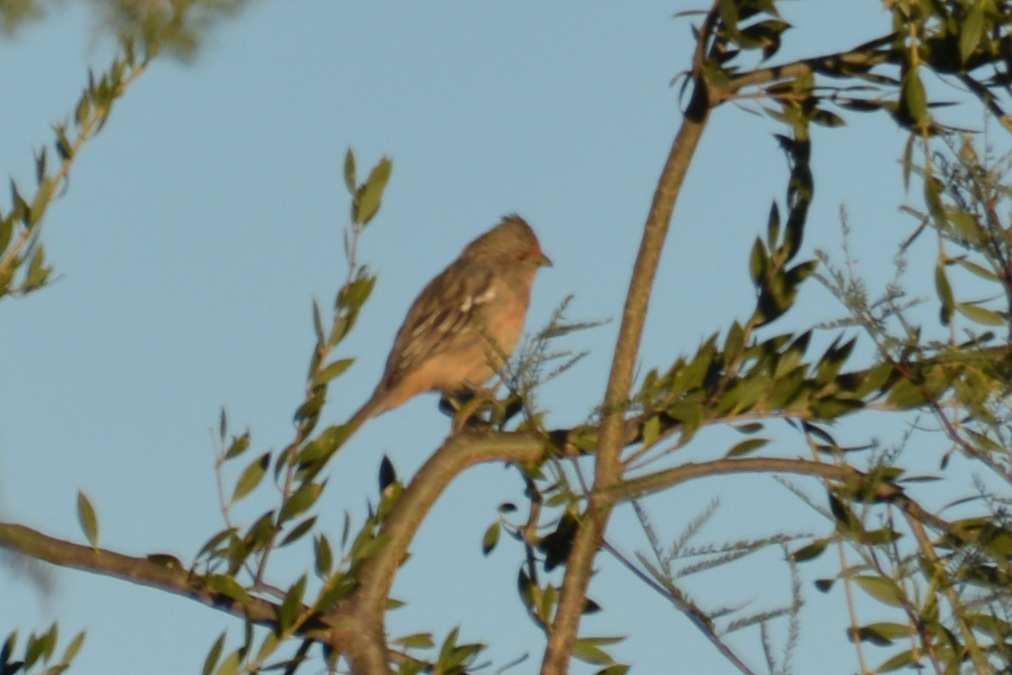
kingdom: Animalia
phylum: Chordata
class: Aves
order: Passeriformes
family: Cotingidae
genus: Phytotoma
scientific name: Phytotoma rutila
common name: White-tipped plantcutter
